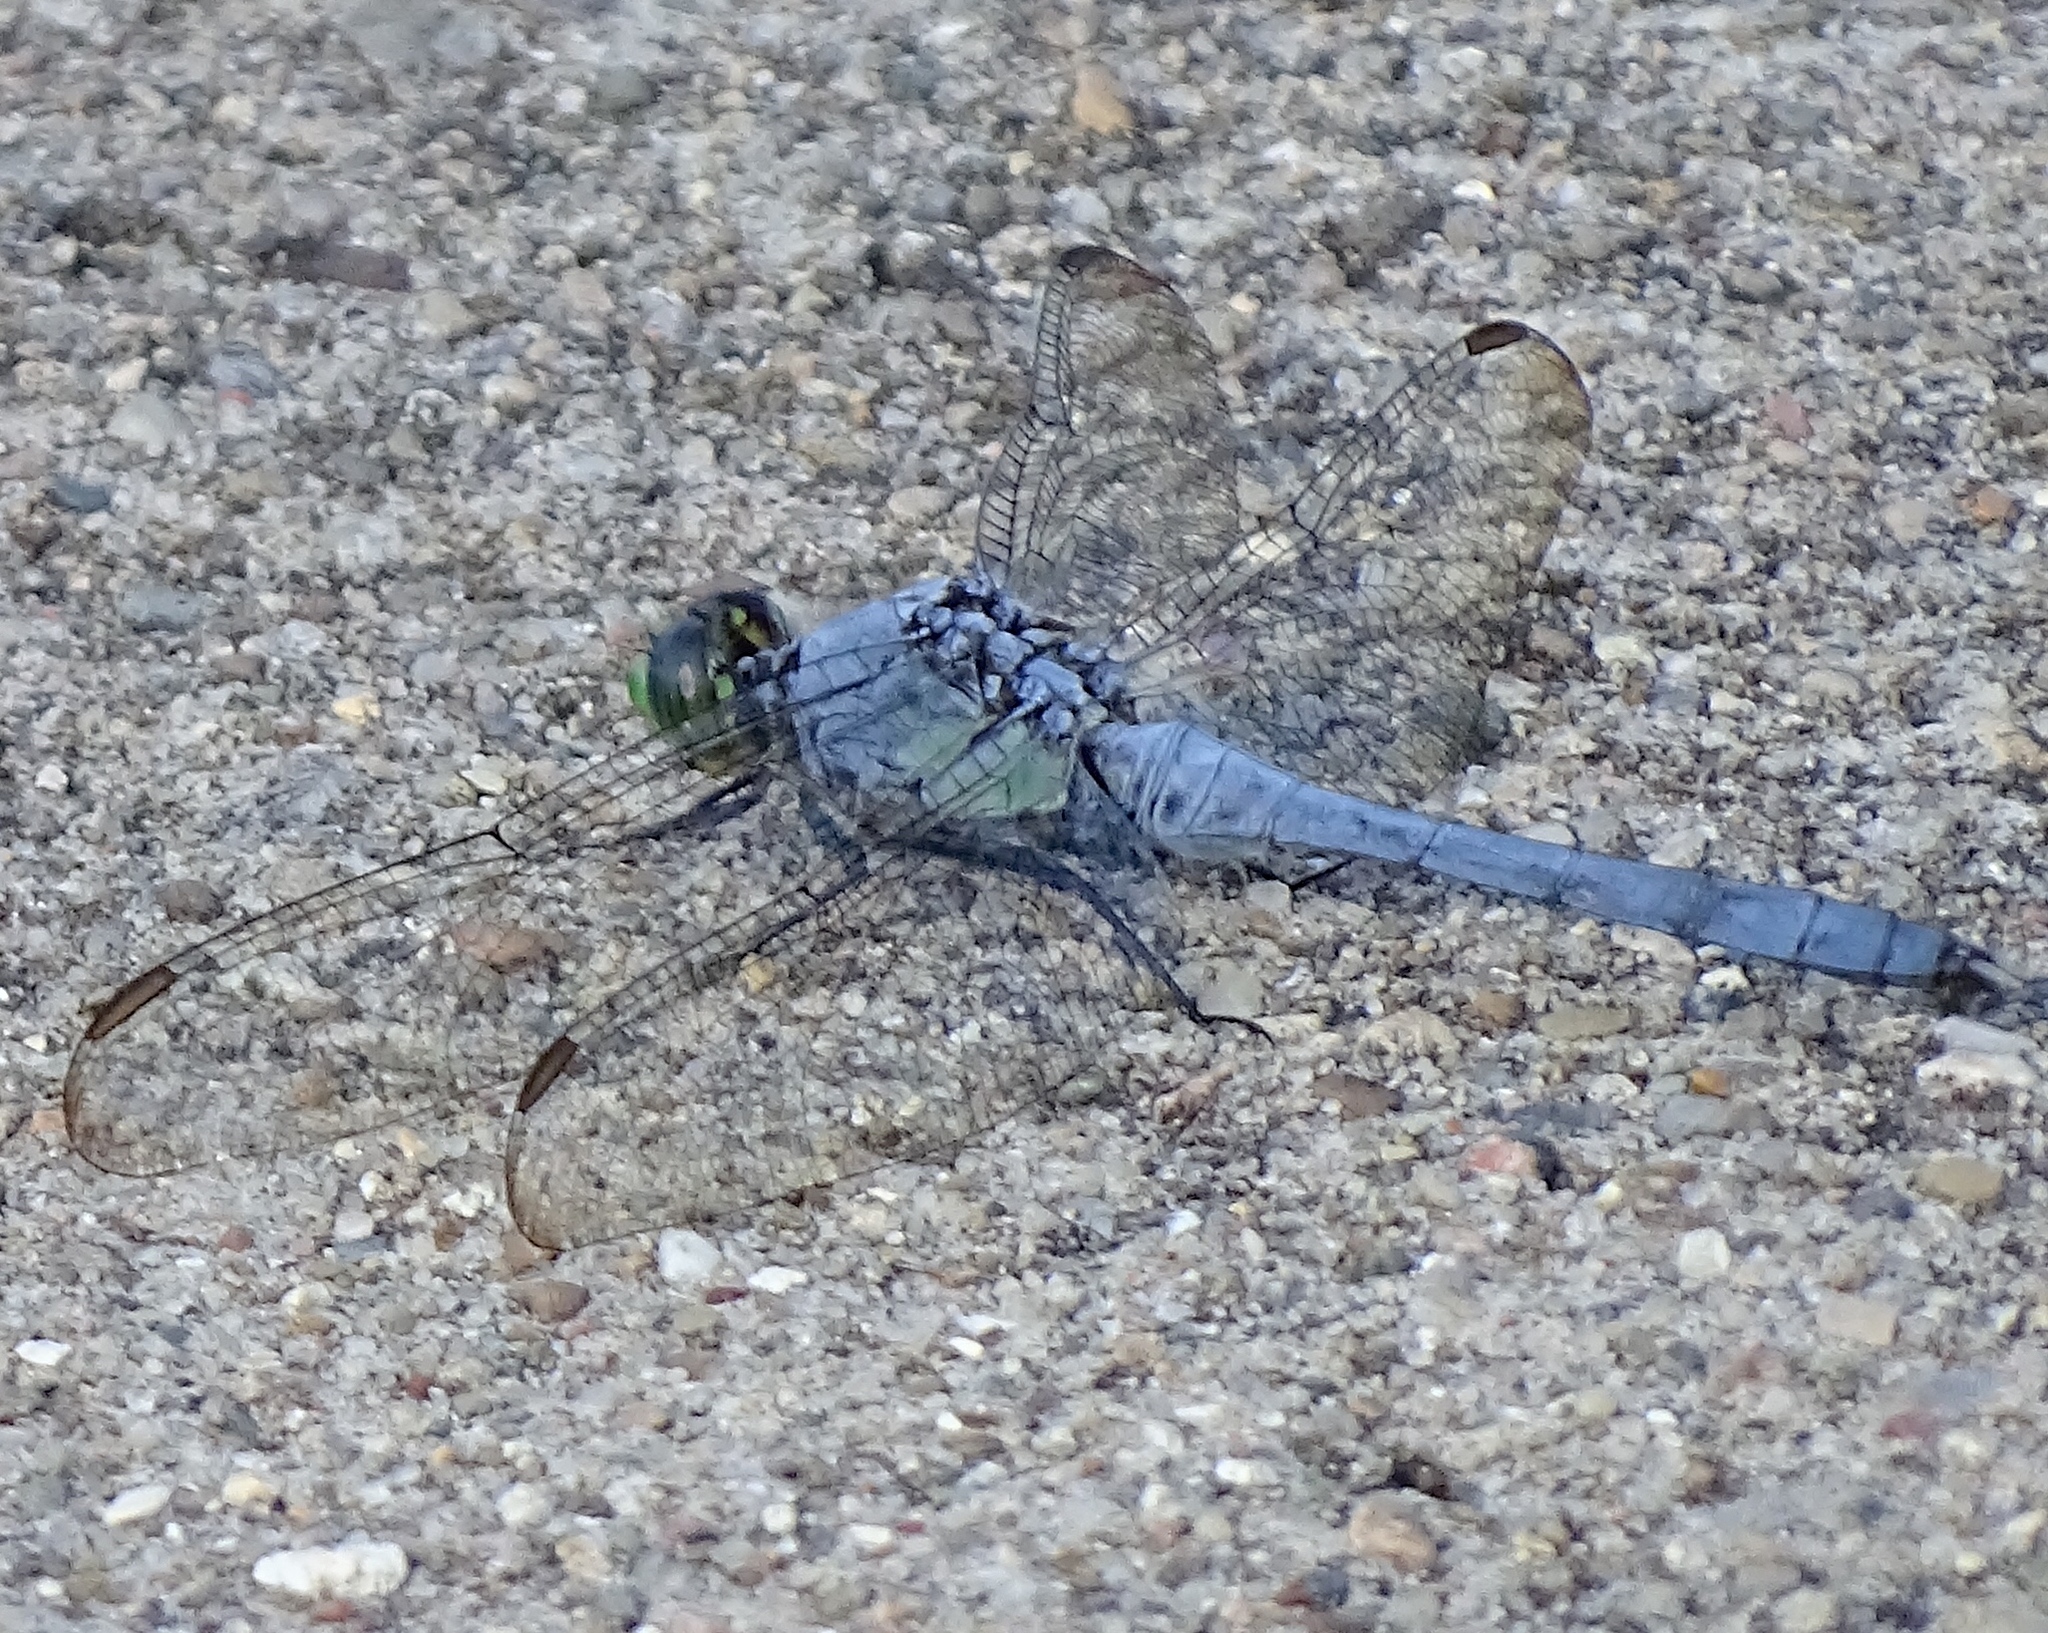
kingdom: Animalia
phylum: Arthropoda
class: Insecta
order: Odonata
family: Libellulidae
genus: Erythemis
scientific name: Erythemis simplicicollis
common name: Eastern pondhawk
